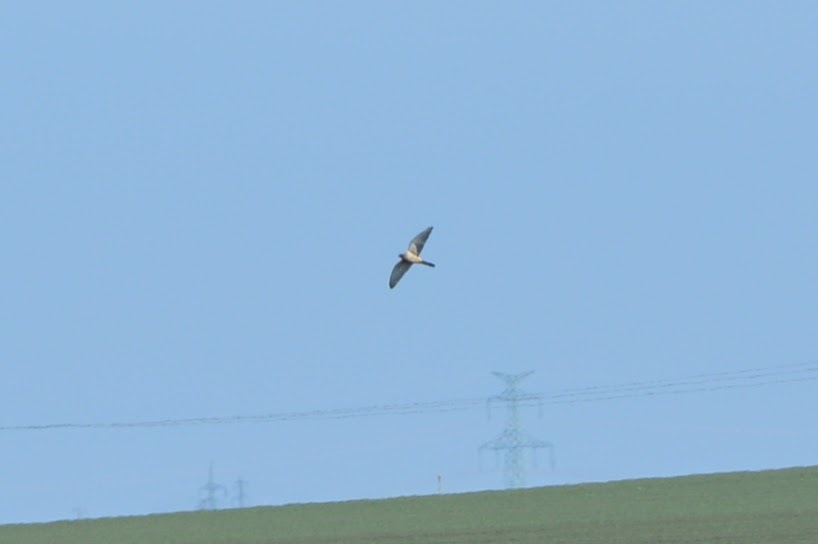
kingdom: Animalia
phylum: Chordata
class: Aves
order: Falconiformes
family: Falconidae
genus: Falco
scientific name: Falco tinnunculus
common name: Common kestrel
